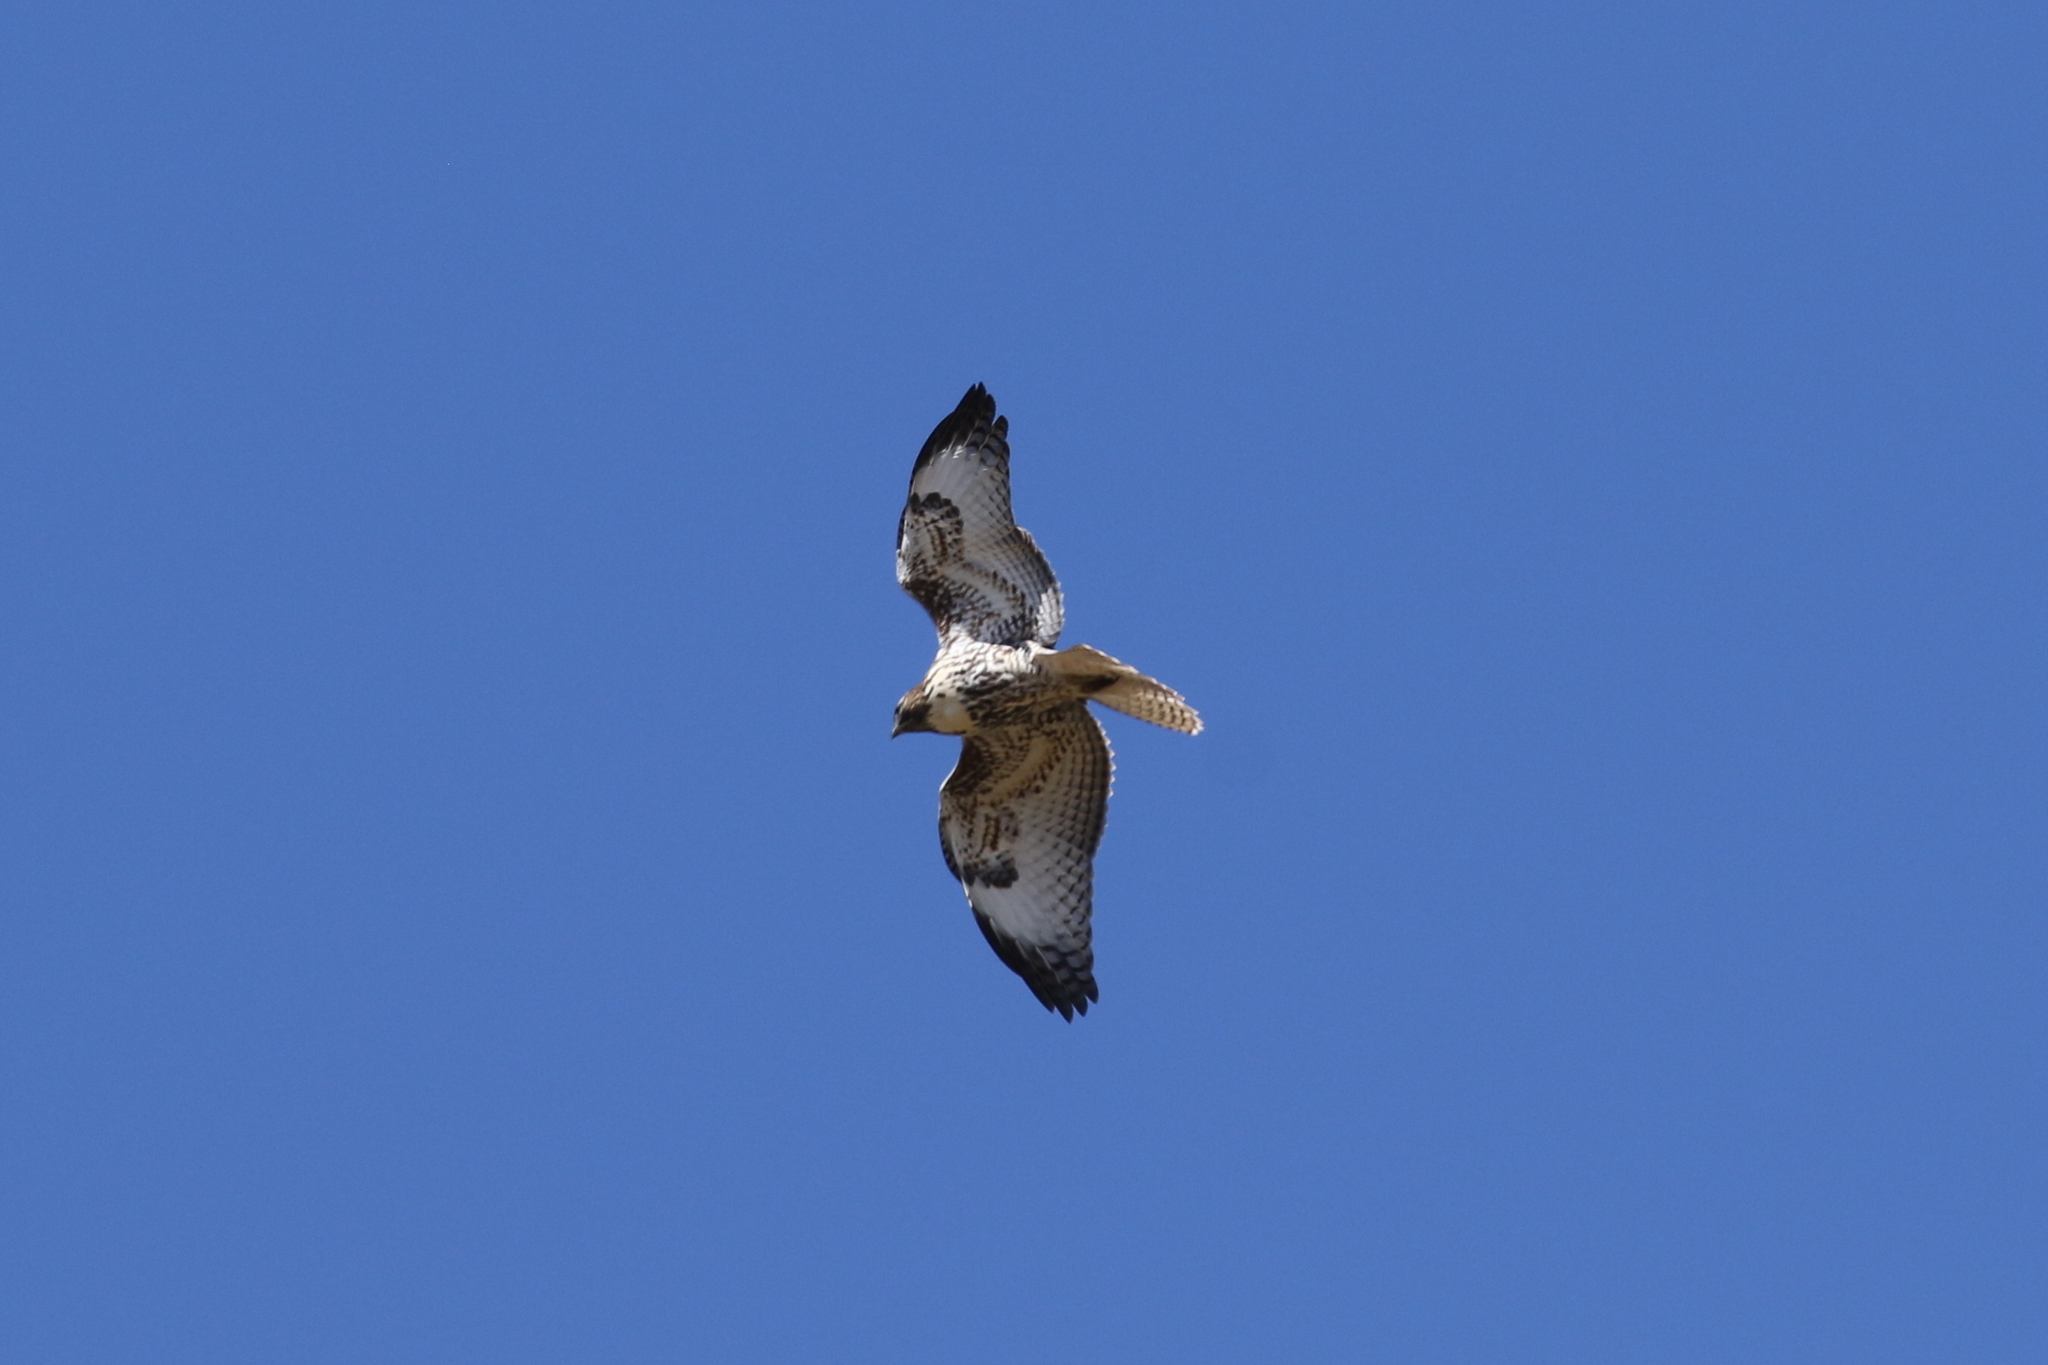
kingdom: Animalia
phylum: Chordata
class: Aves
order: Accipitriformes
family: Accipitridae
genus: Buteo
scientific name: Buteo jamaicensis
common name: Red-tailed hawk
